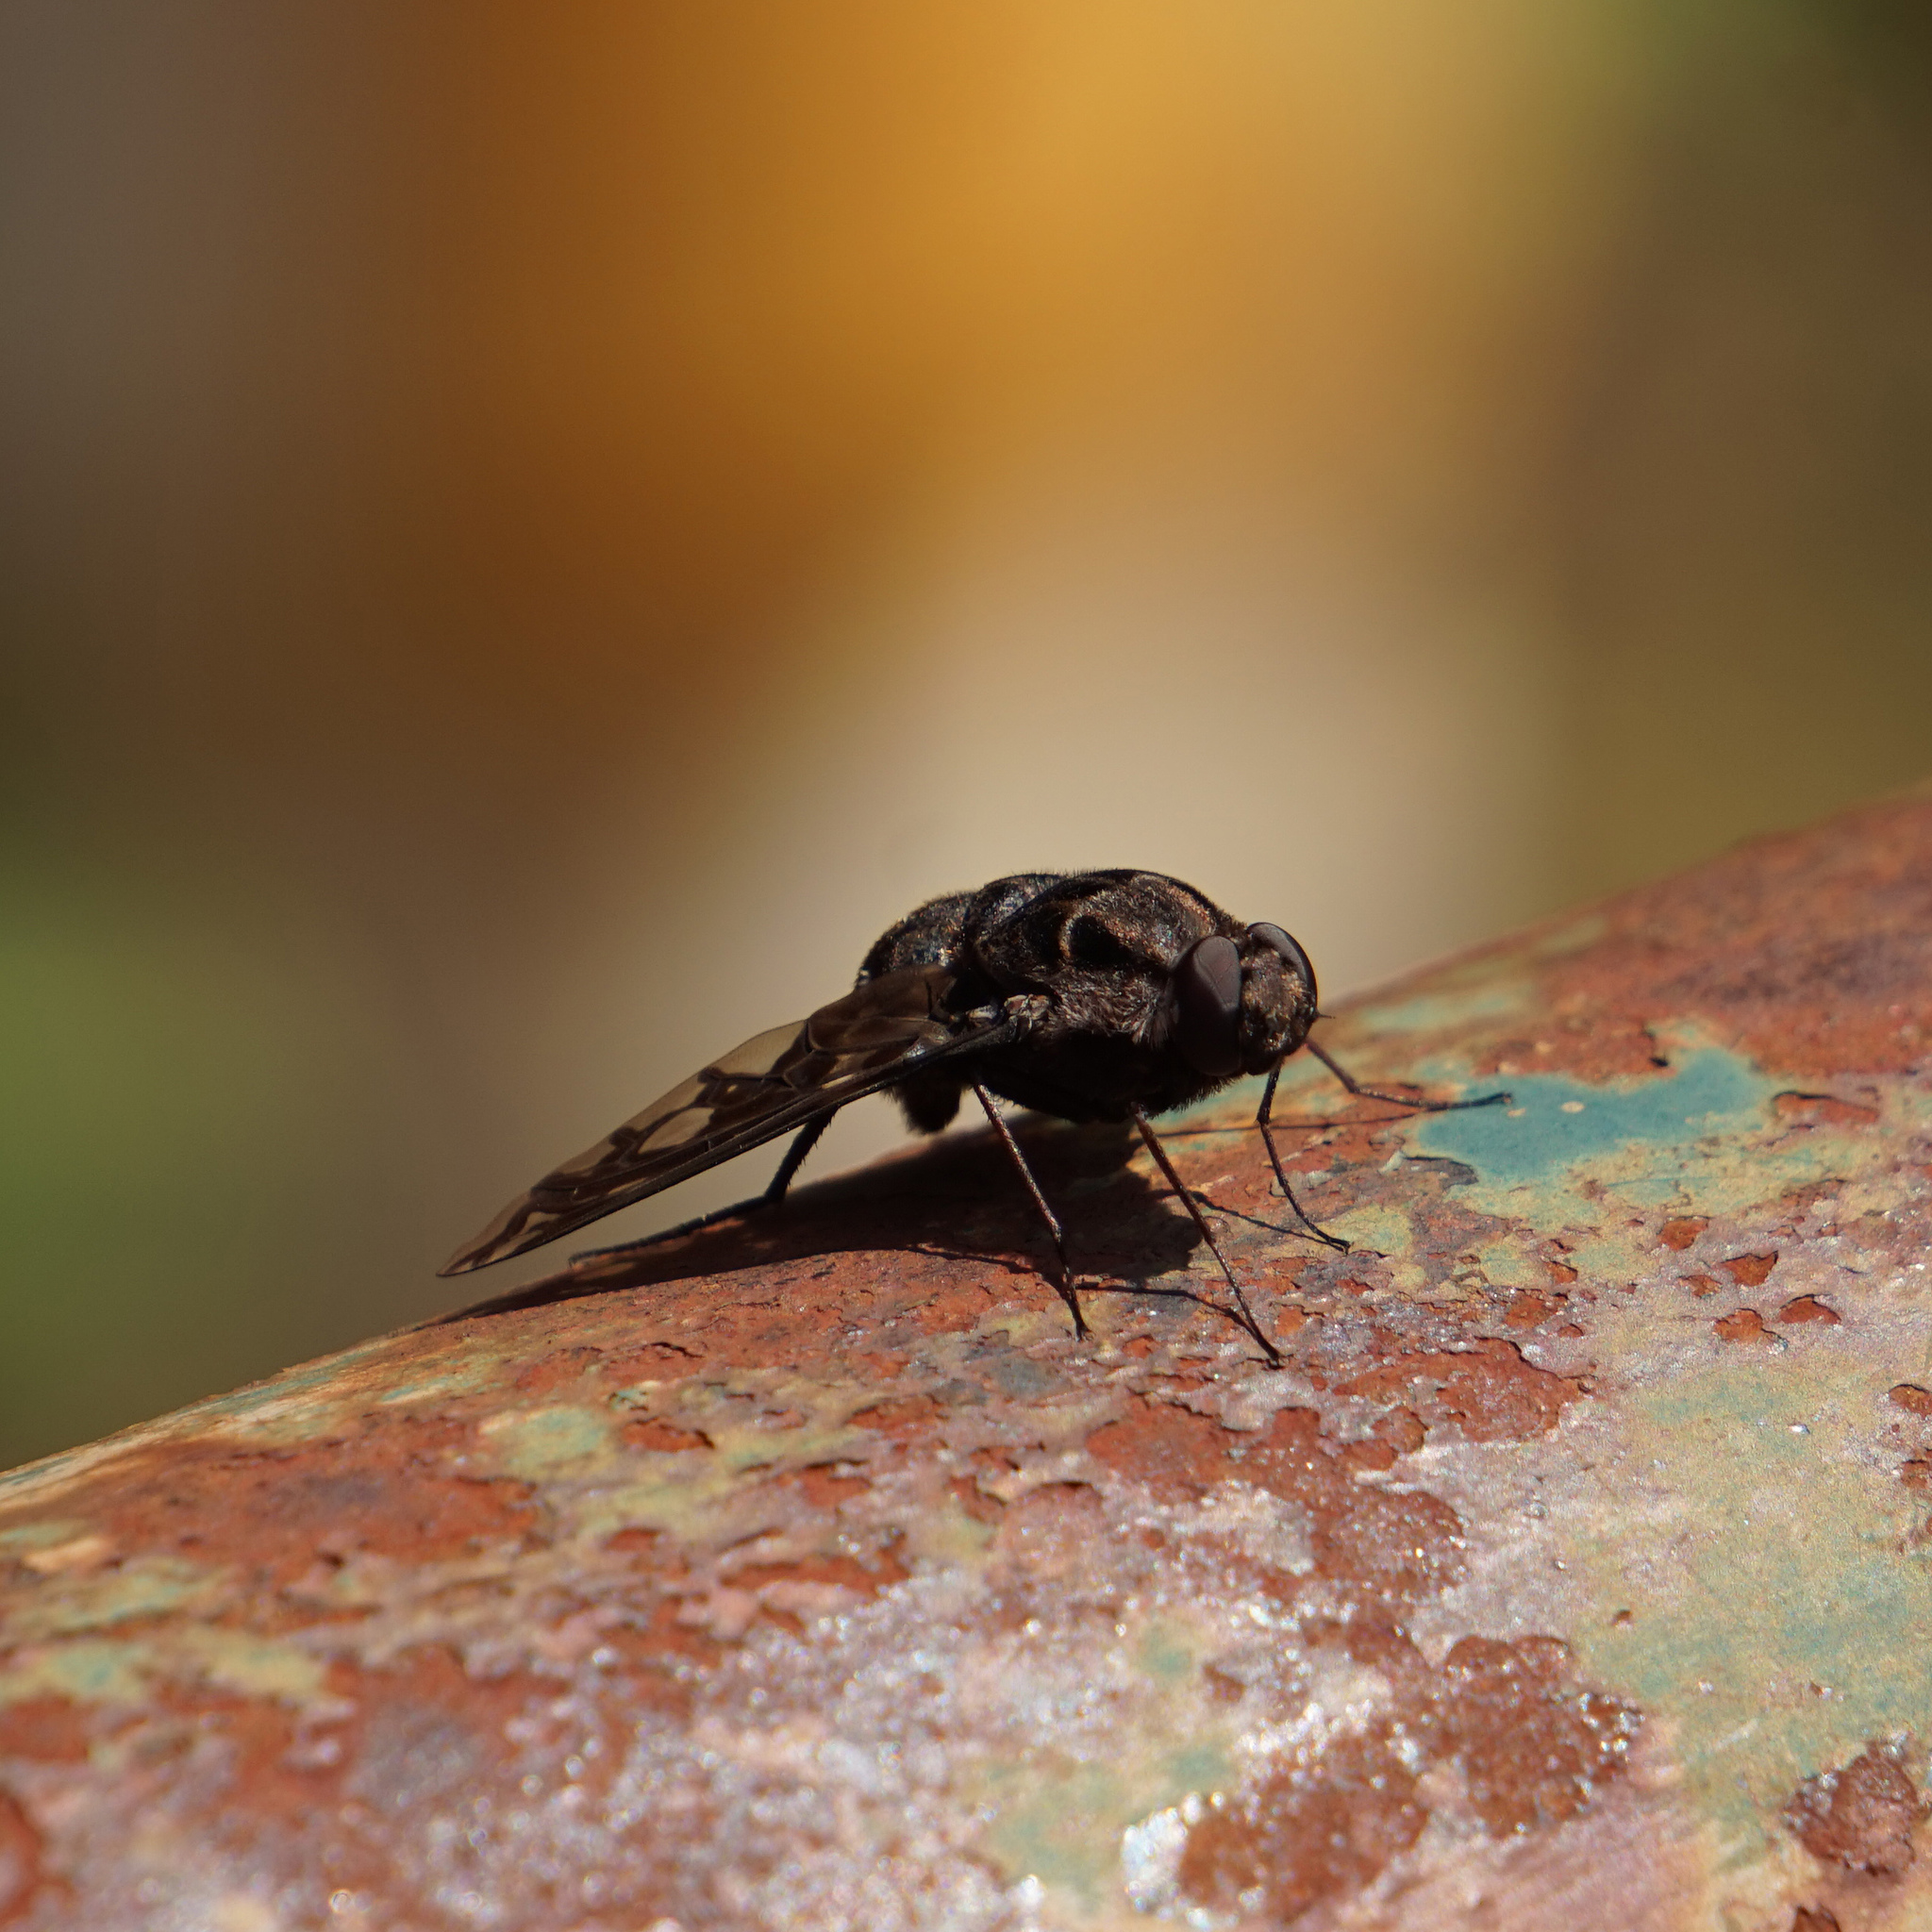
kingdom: Animalia
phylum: Arthropoda
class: Insecta
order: Diptera
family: Bombyliidae
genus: Xenox
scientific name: Xenox tigrinus
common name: Tiger bee fly
